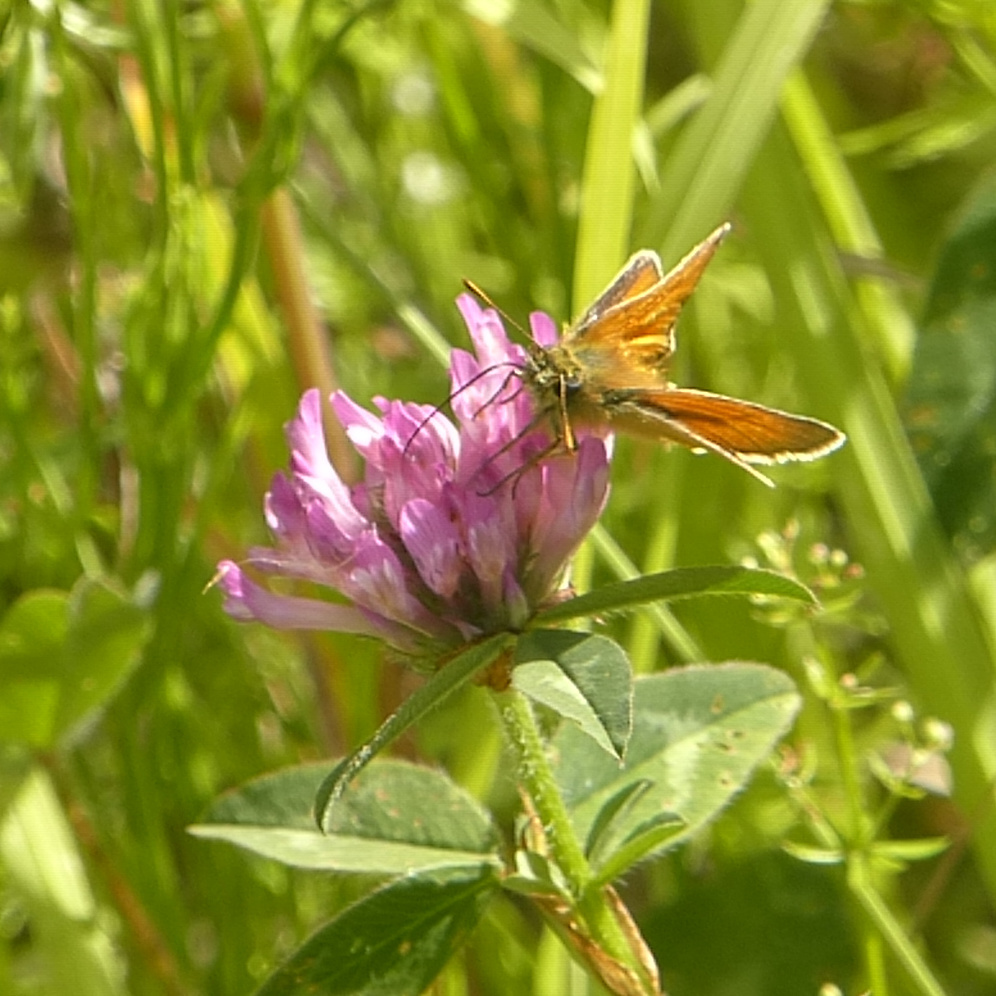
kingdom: Animalia
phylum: Arthropoda
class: Insecta
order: Lepidoptera
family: Hesperiidae
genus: Thymelicus
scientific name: Thymelicus sylvestris
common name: Small skipper
